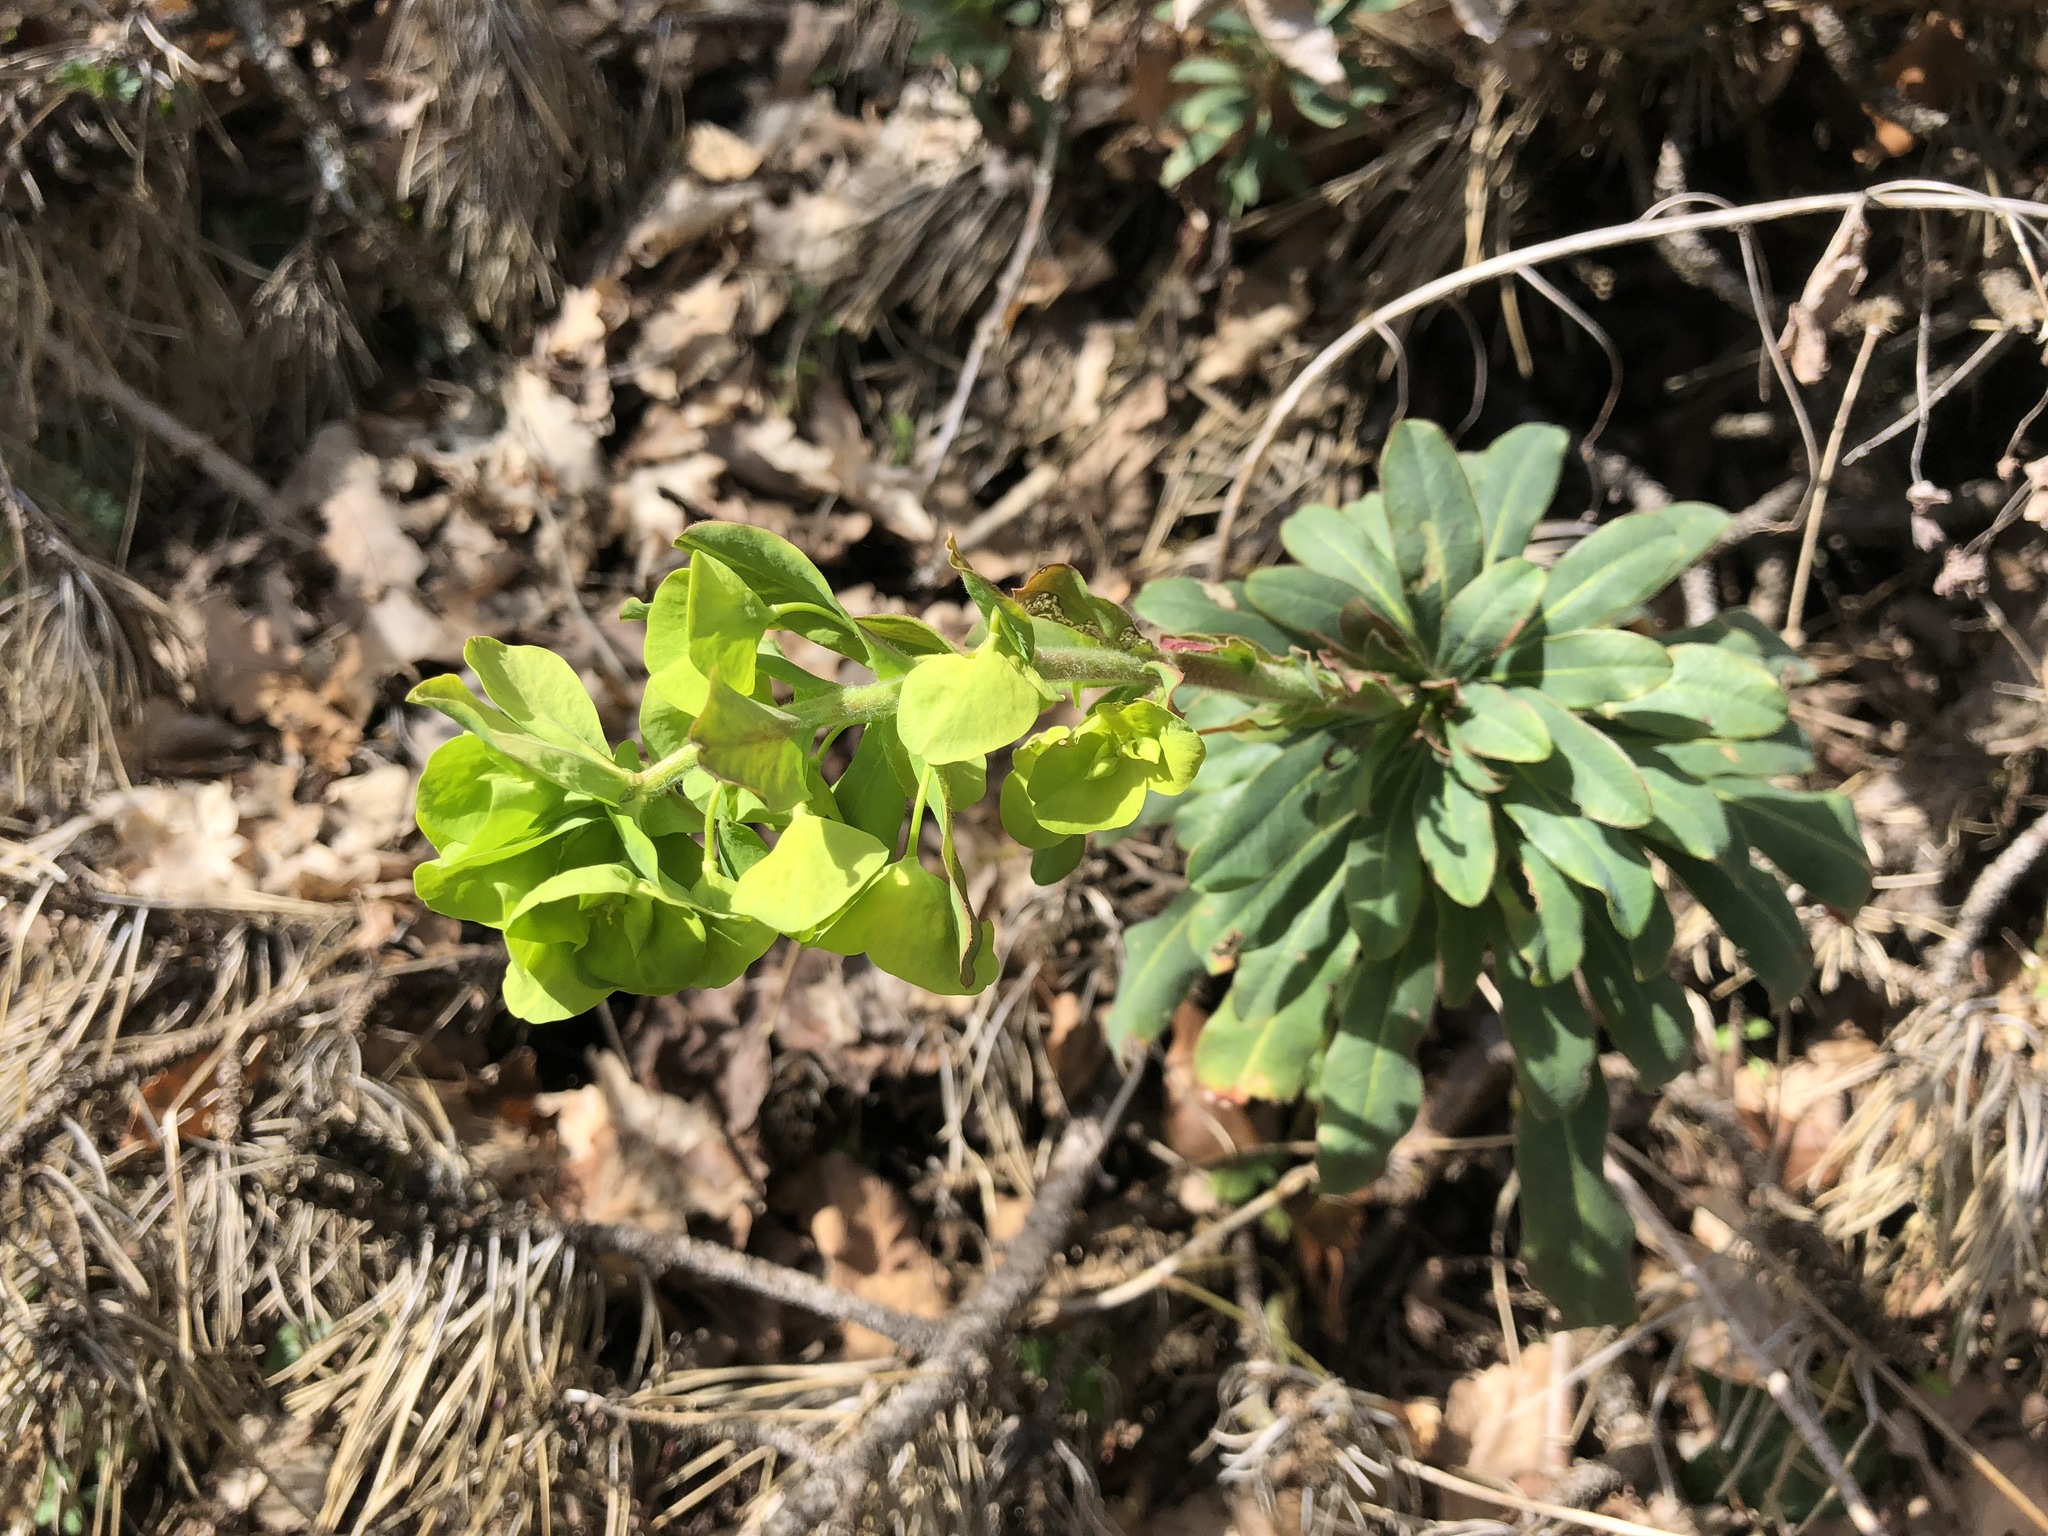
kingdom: Plantae
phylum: Tracheophyta
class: Magnoliopsida
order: Malpighiales
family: Euphorbiaceae
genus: Euphorbia
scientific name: Euphorbia amygdaloides
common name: Wood spurge
